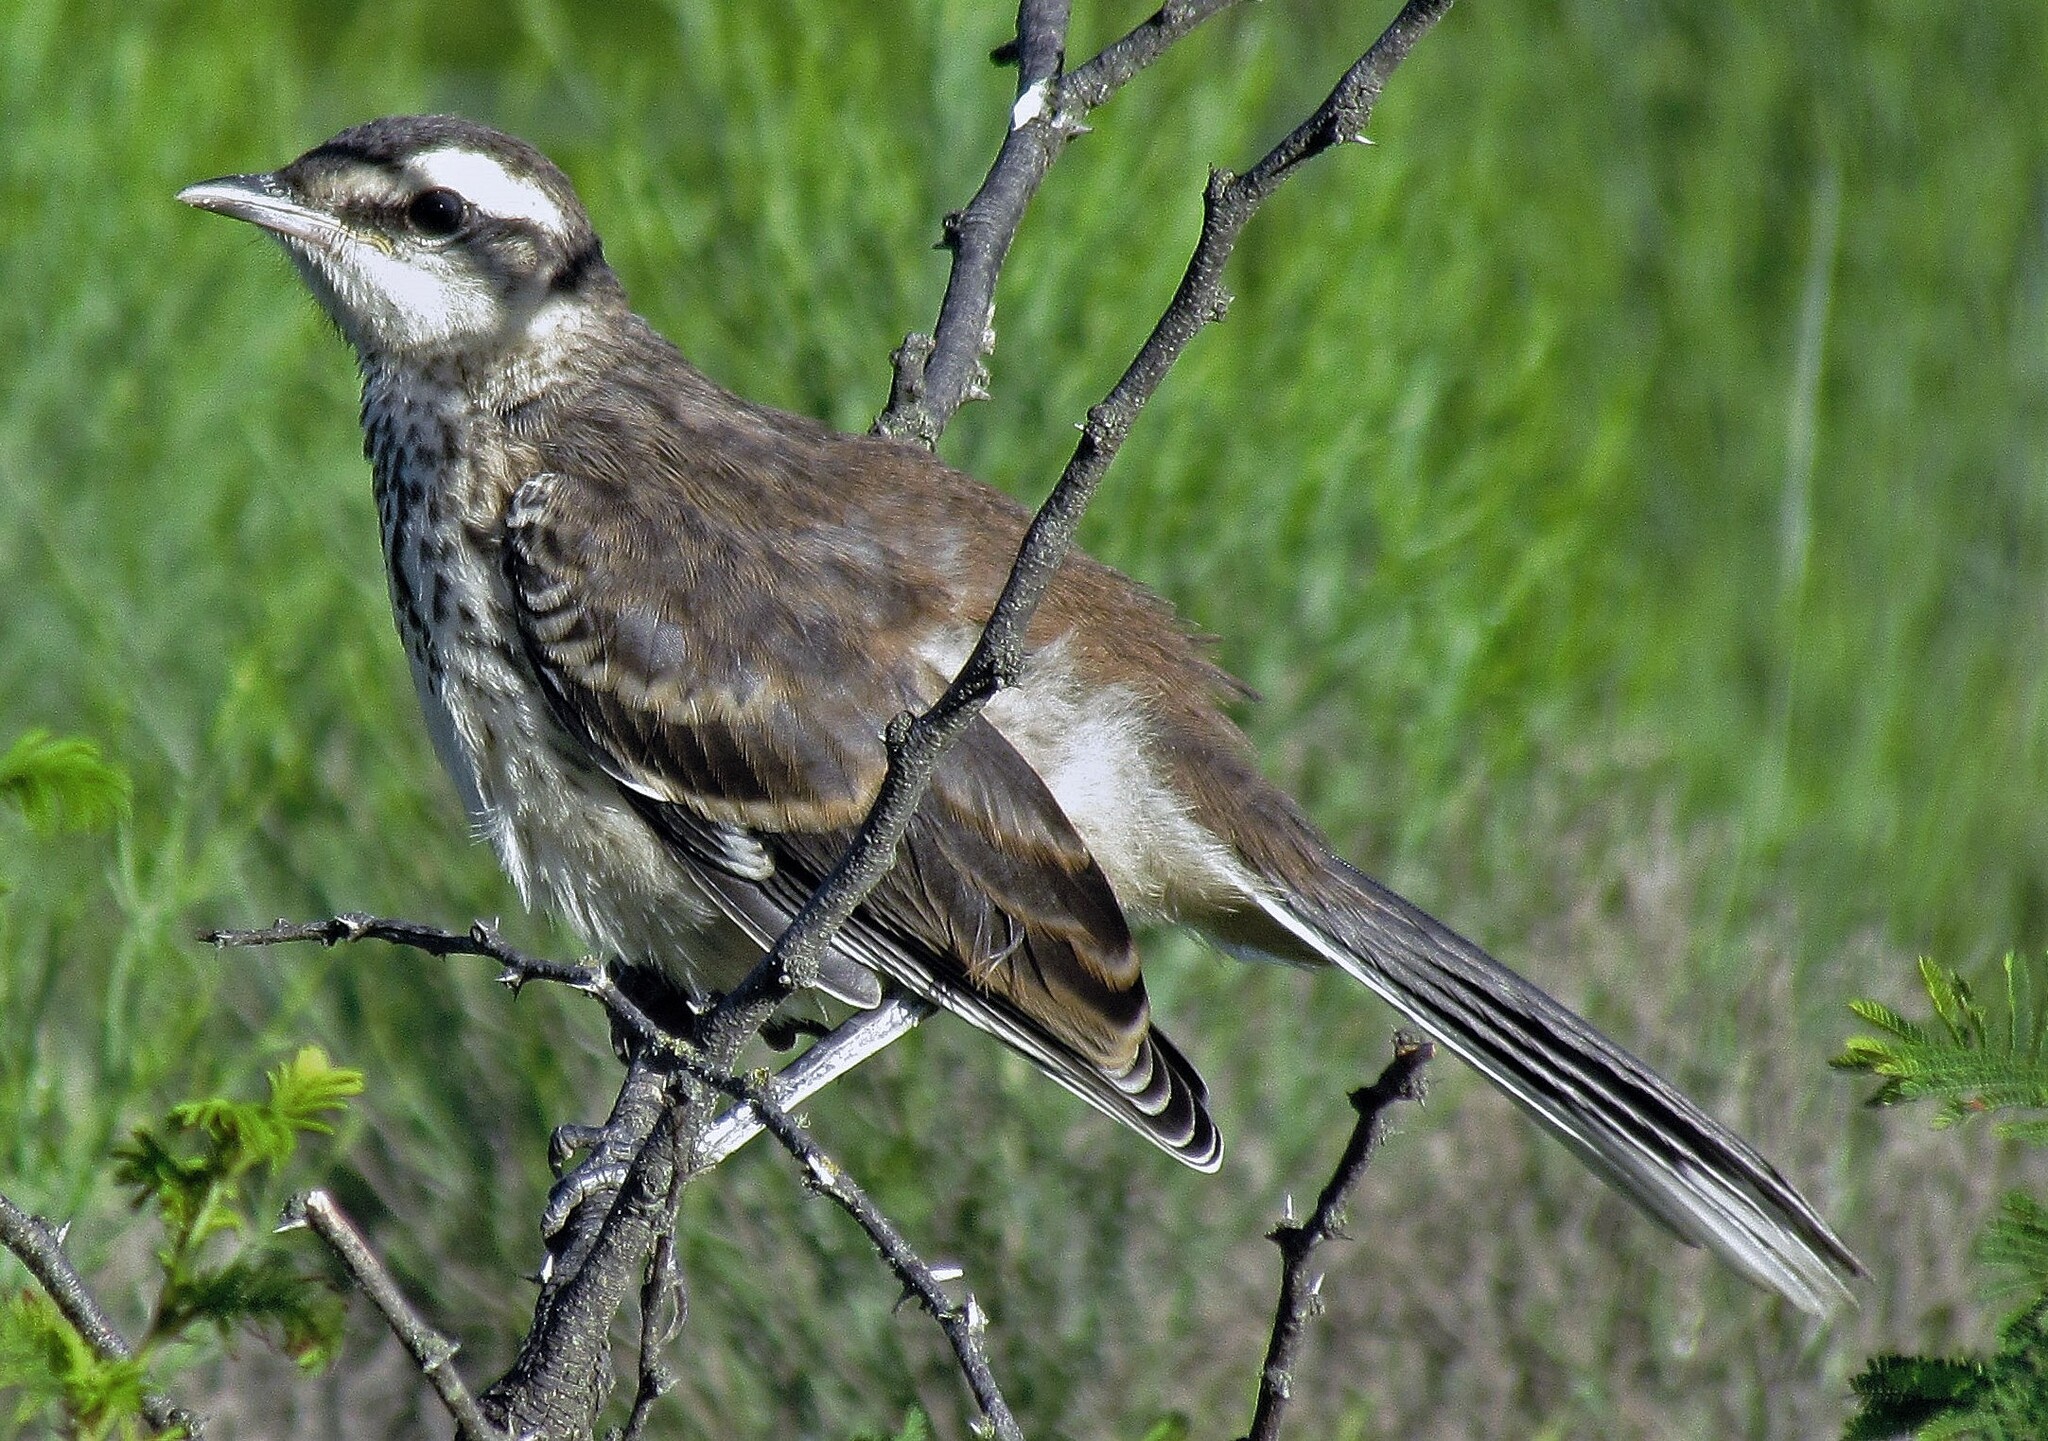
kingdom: Animalia
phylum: Chordata
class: Aves
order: Passeriformes
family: Mimidae
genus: Mimus
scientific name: Mimus saturninus
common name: Chalk-browed mockingbird
